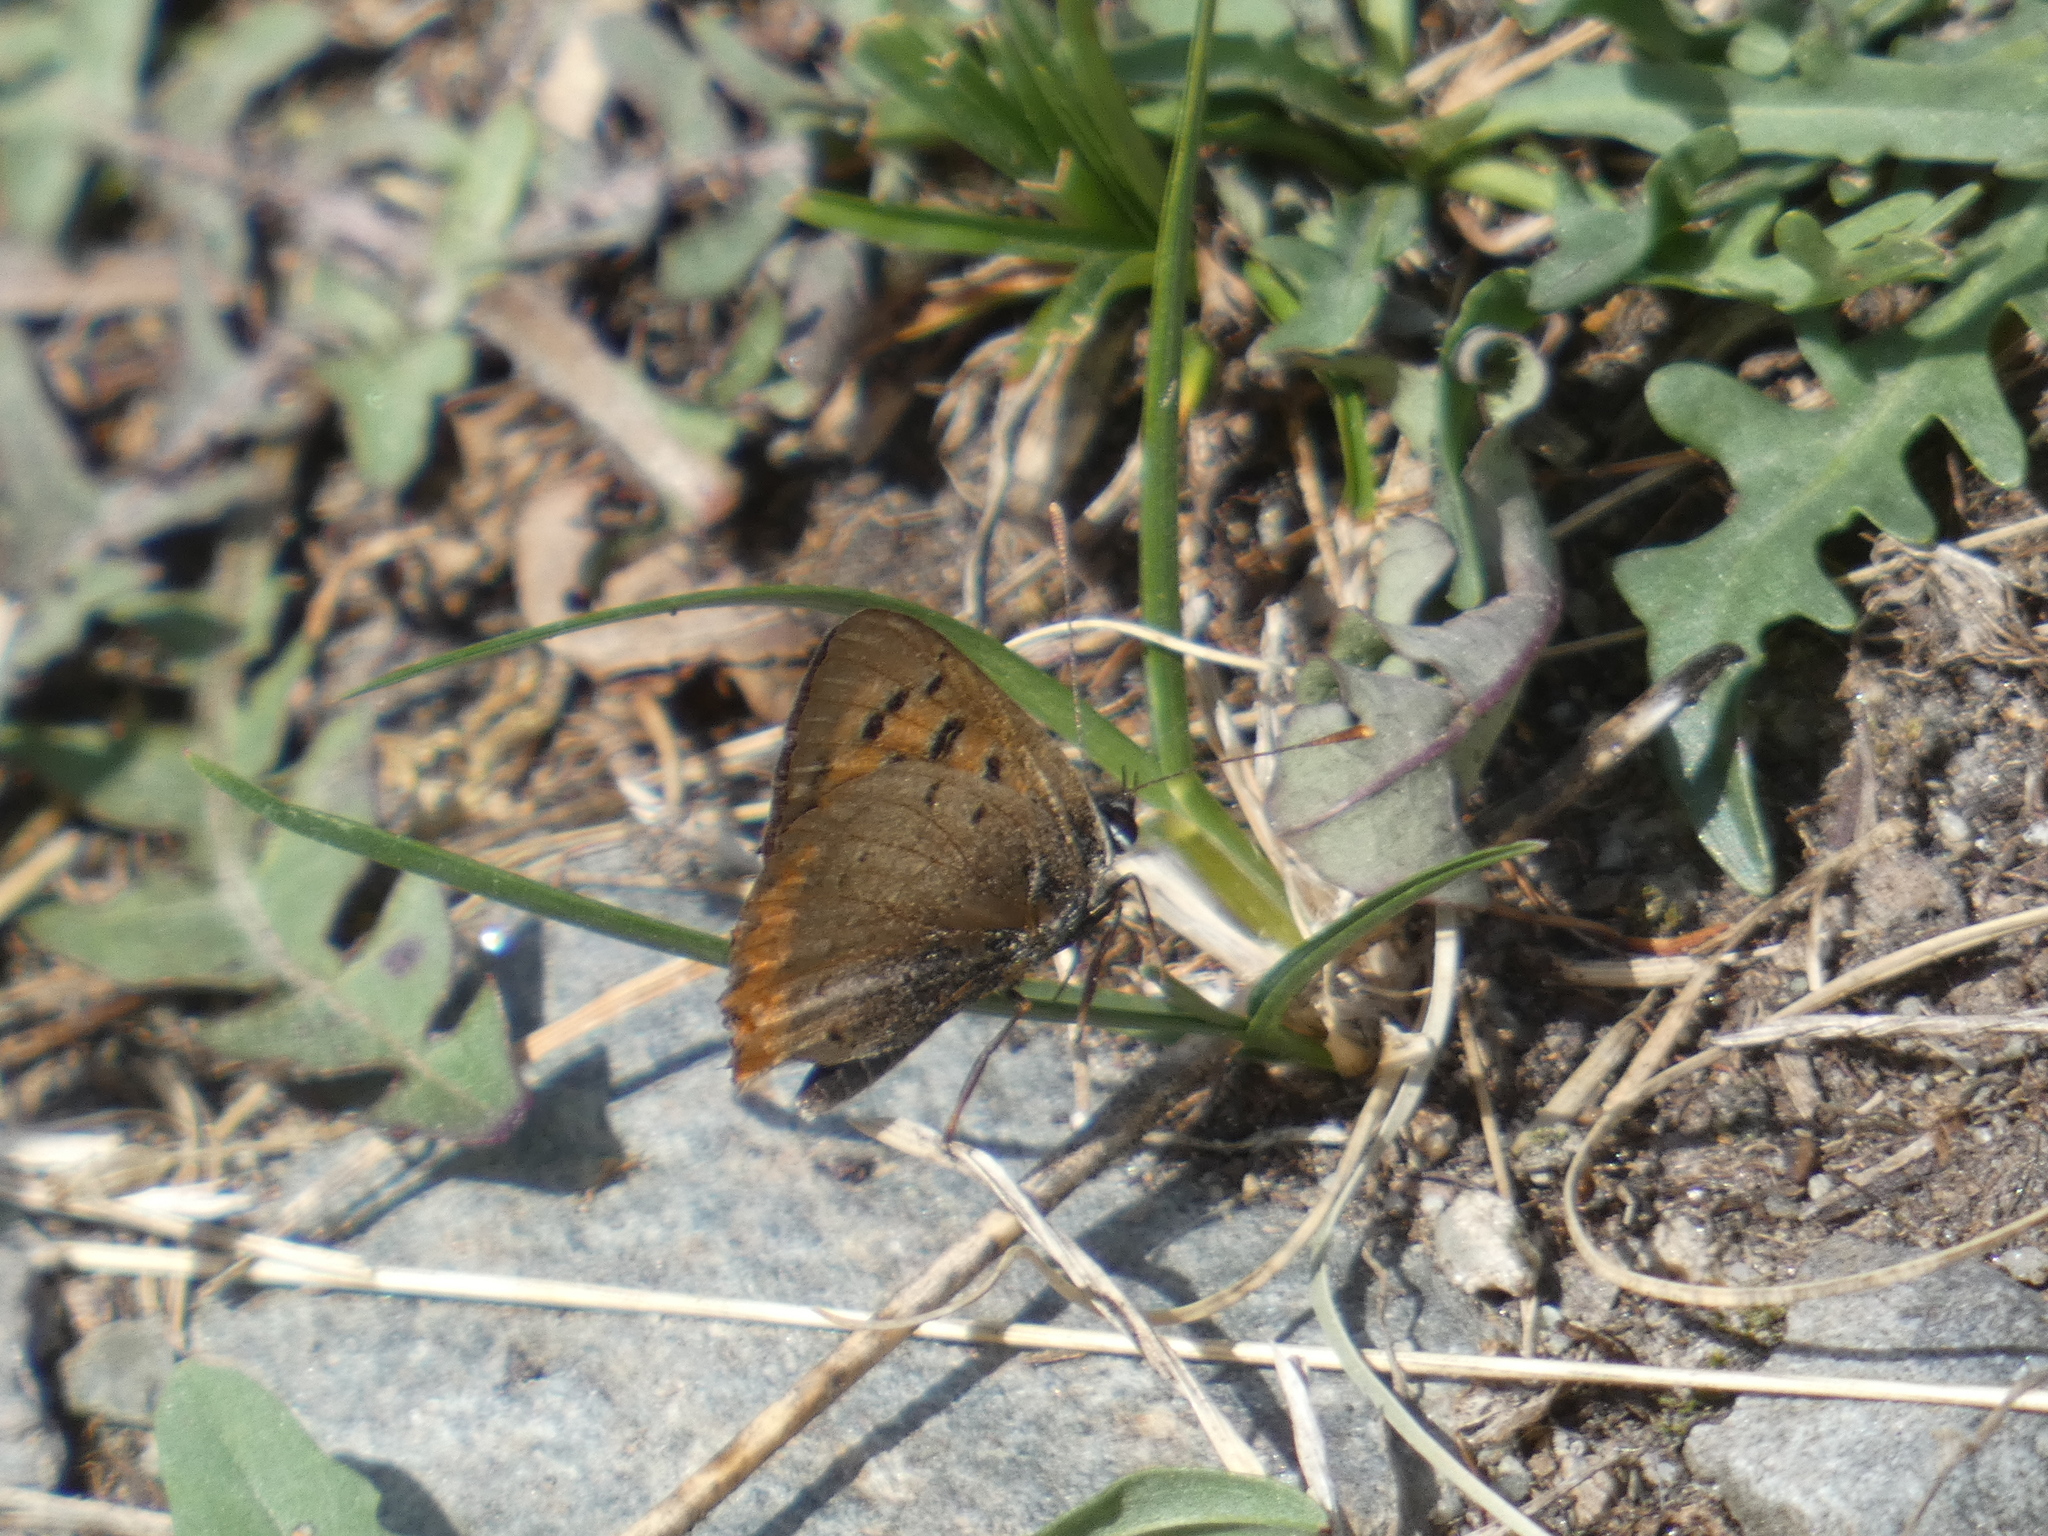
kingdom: Animalia
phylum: Arthropoda
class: Insecta
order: Lepidoptera
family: Lycaenidae
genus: Lycaena
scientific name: Lycaena phlaeas
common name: Small copper
